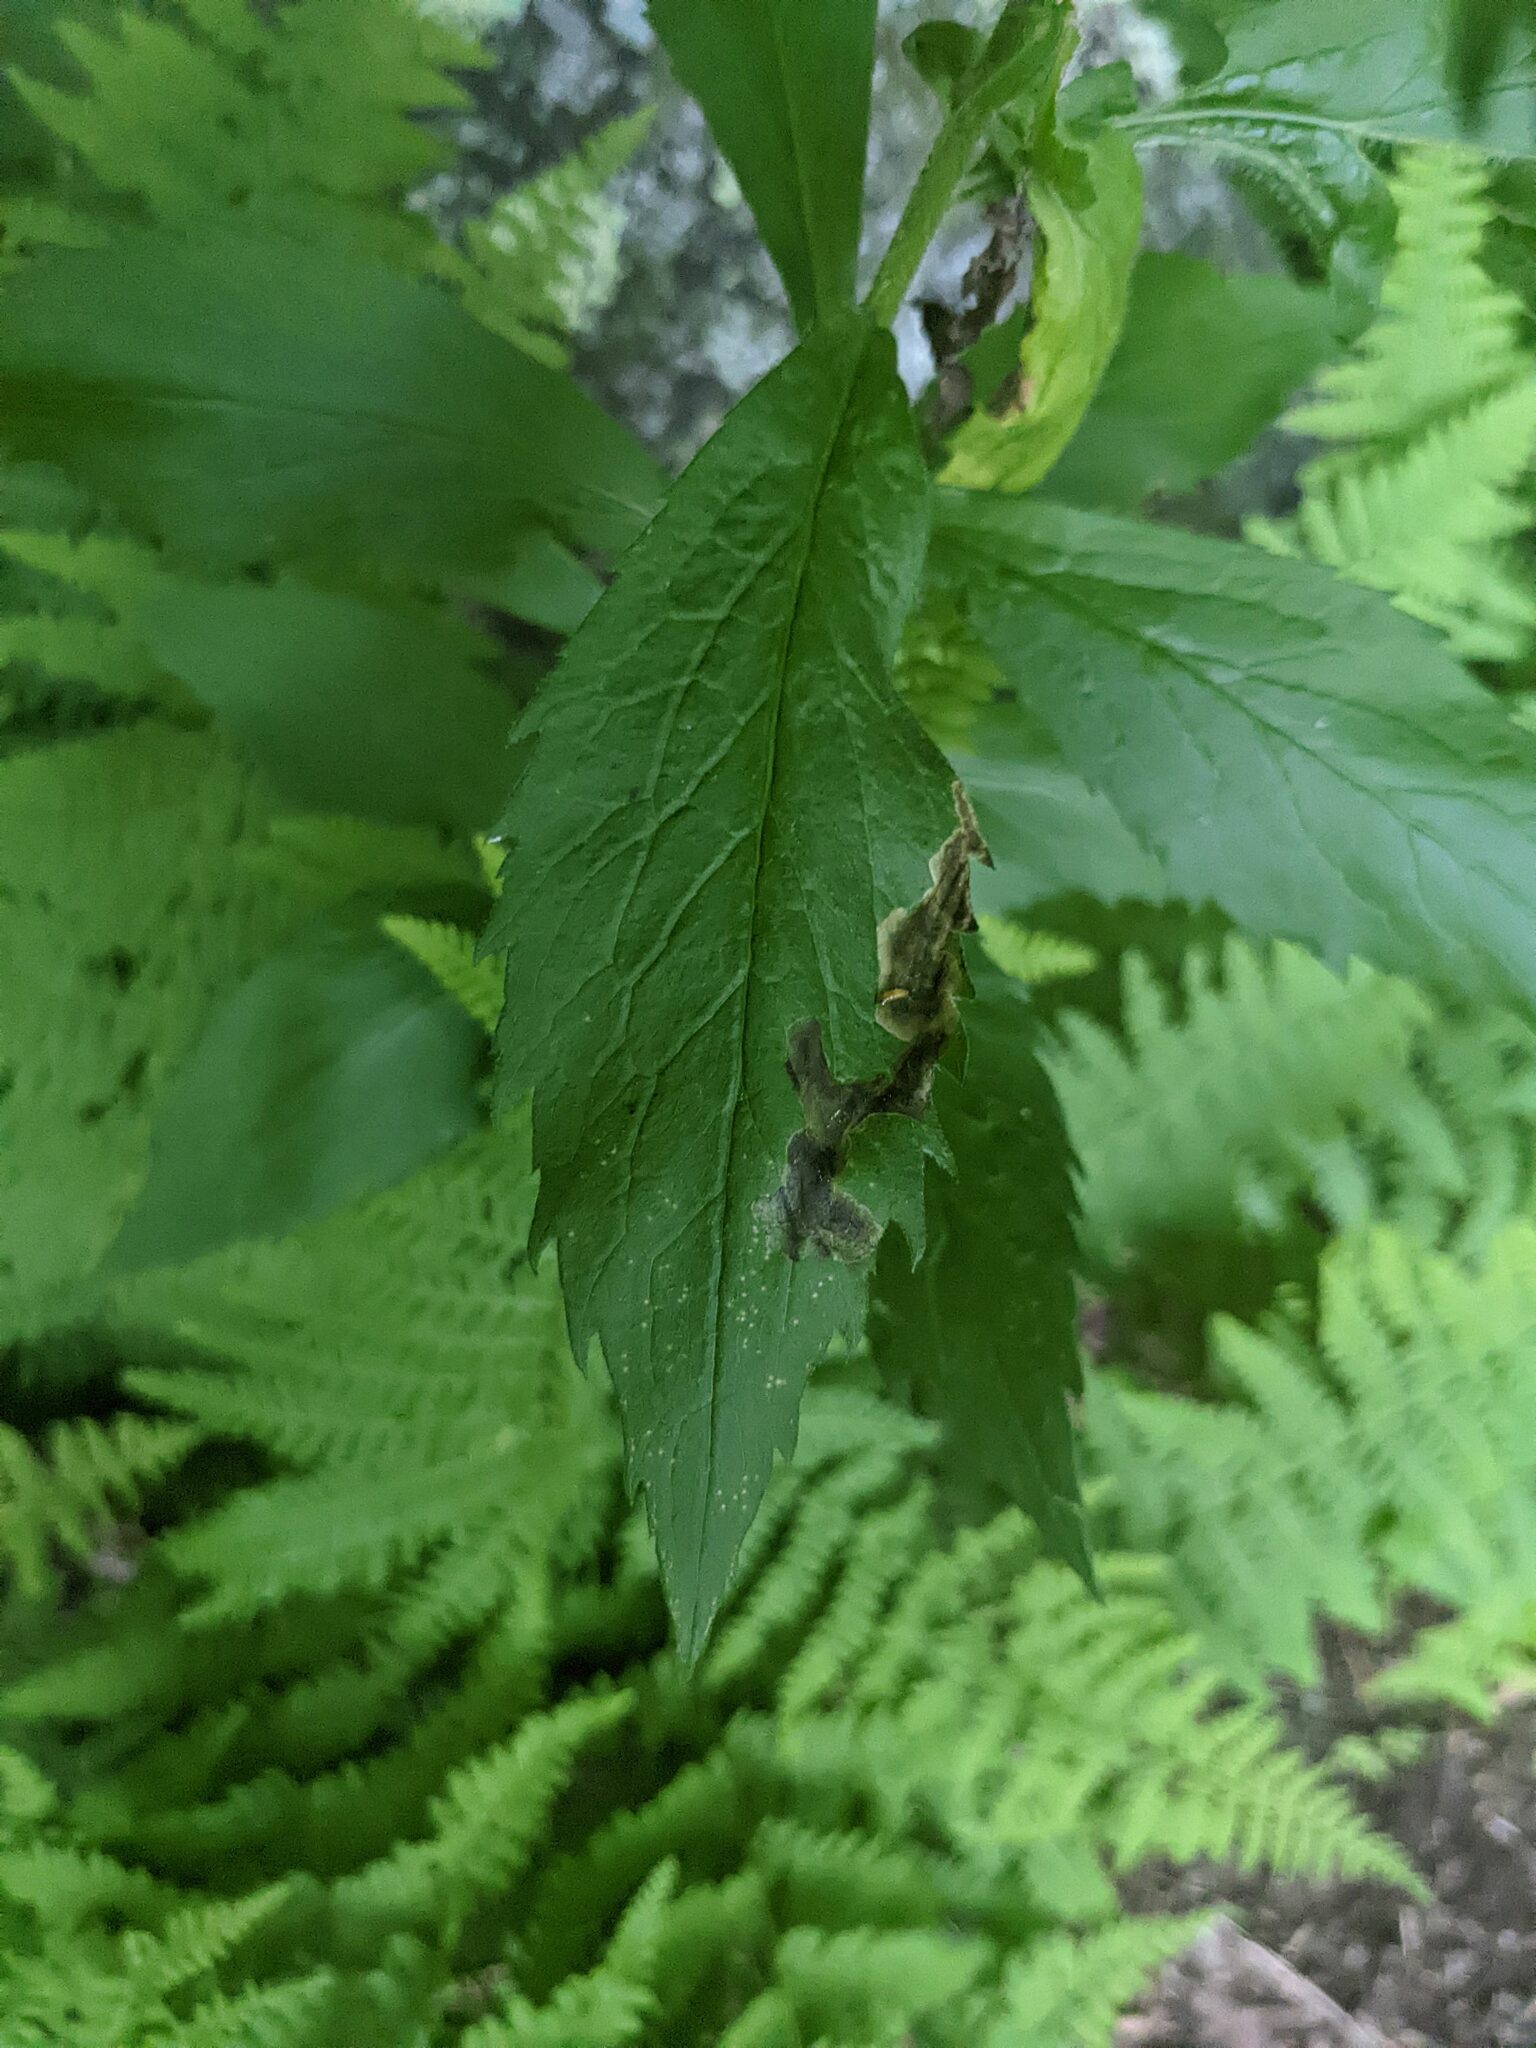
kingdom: Animalia
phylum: Arthropoda
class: Insecta
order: Diptera
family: Agromyzidae
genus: Nemorimyza
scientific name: Nemorimyza posticata
